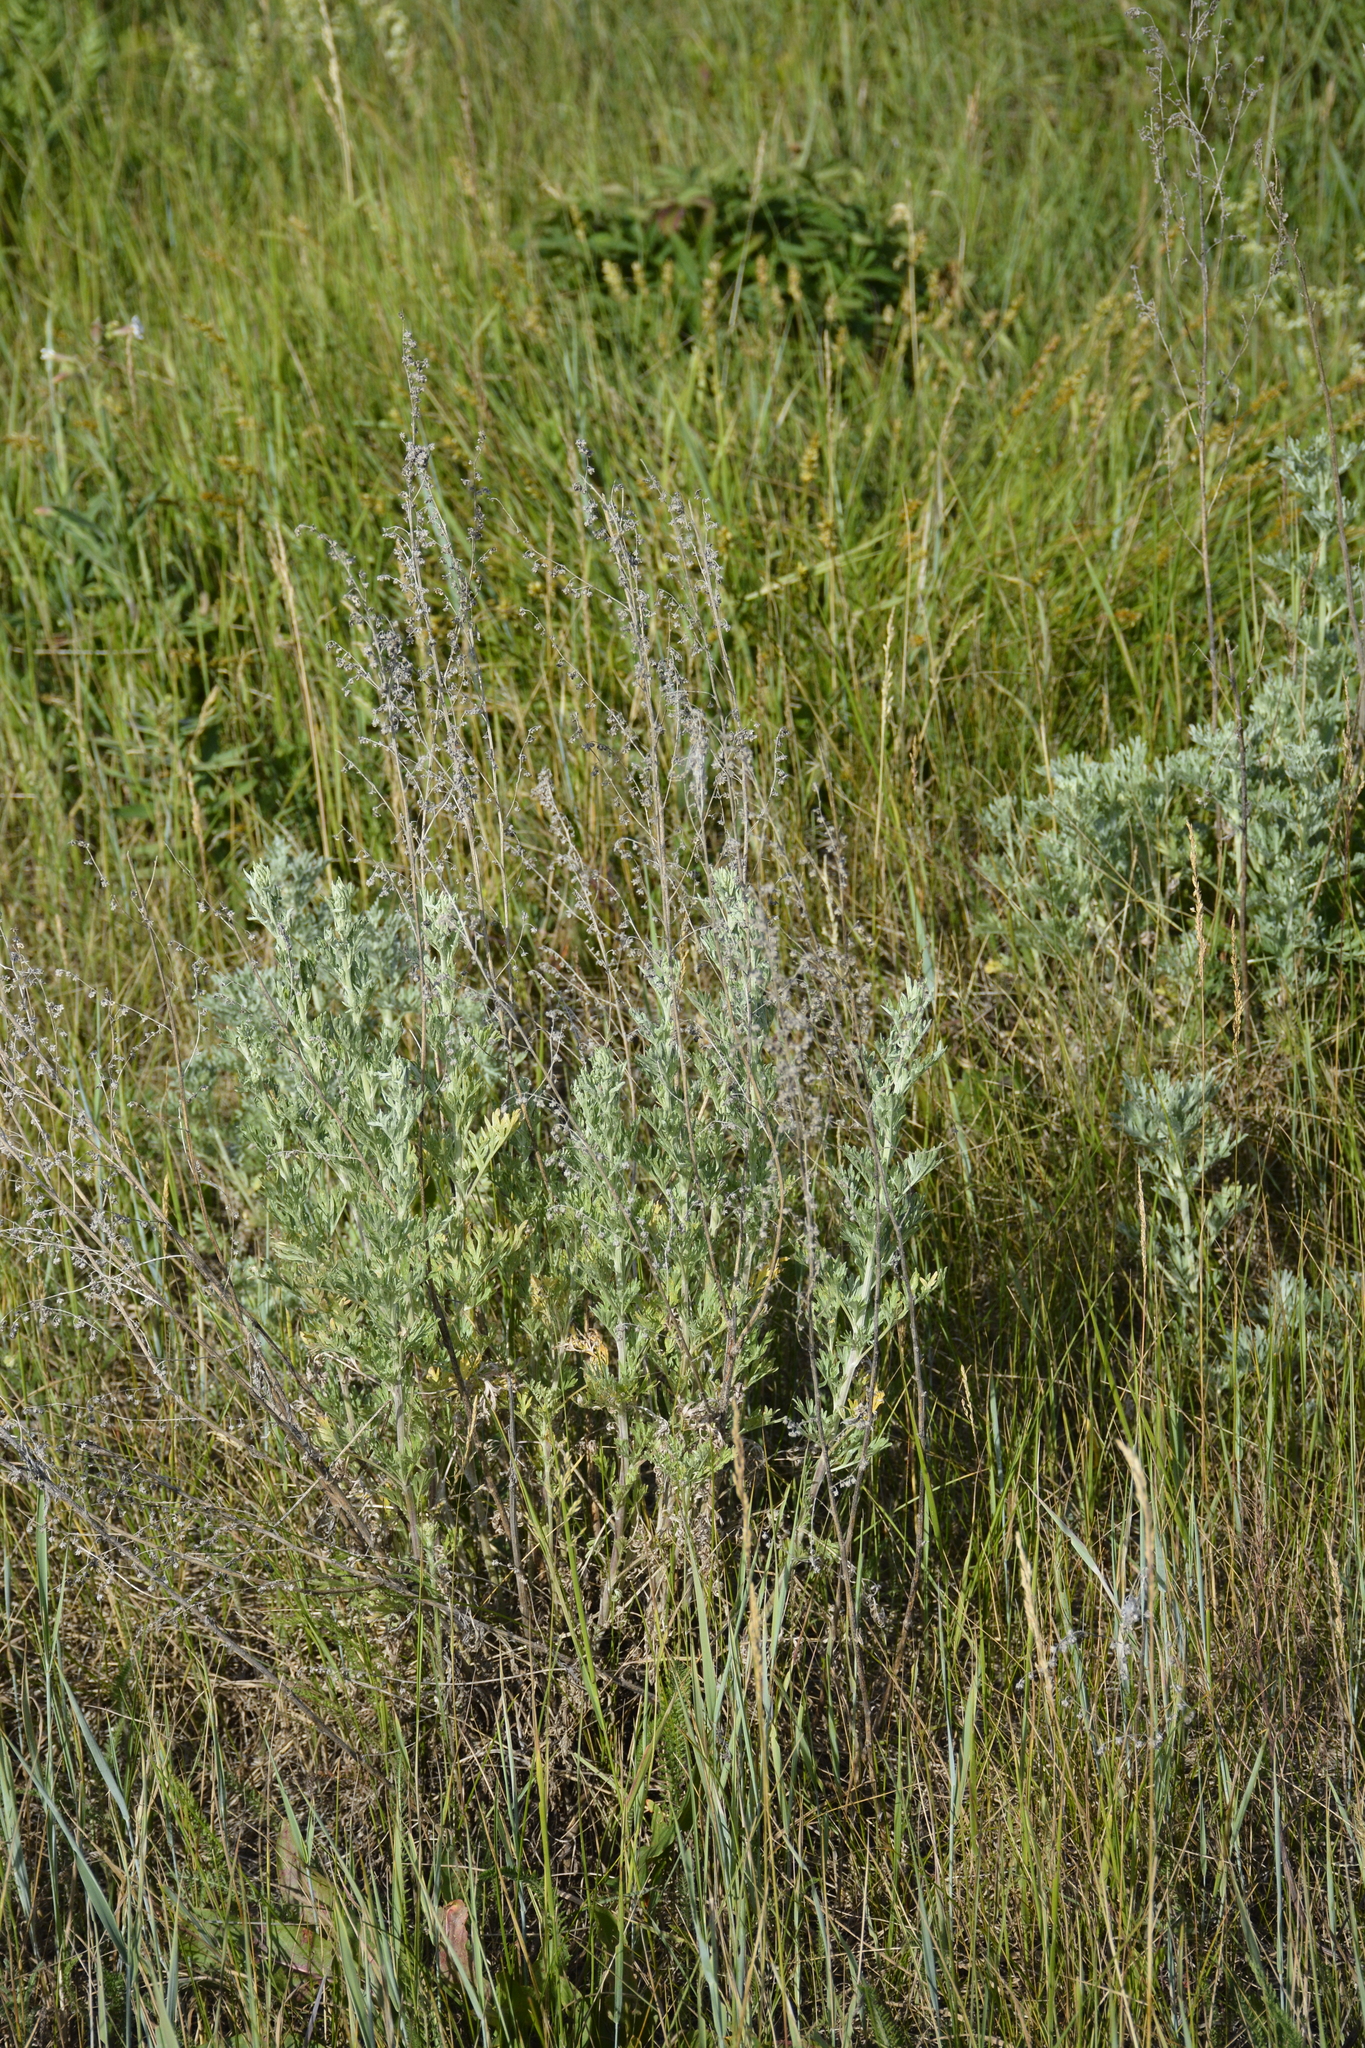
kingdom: Plantae
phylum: Tracheophyta
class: Magnoliopsida
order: Asterales
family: Asteraceae
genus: Artemisia
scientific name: Artemisia absinthium
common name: Wormwood
